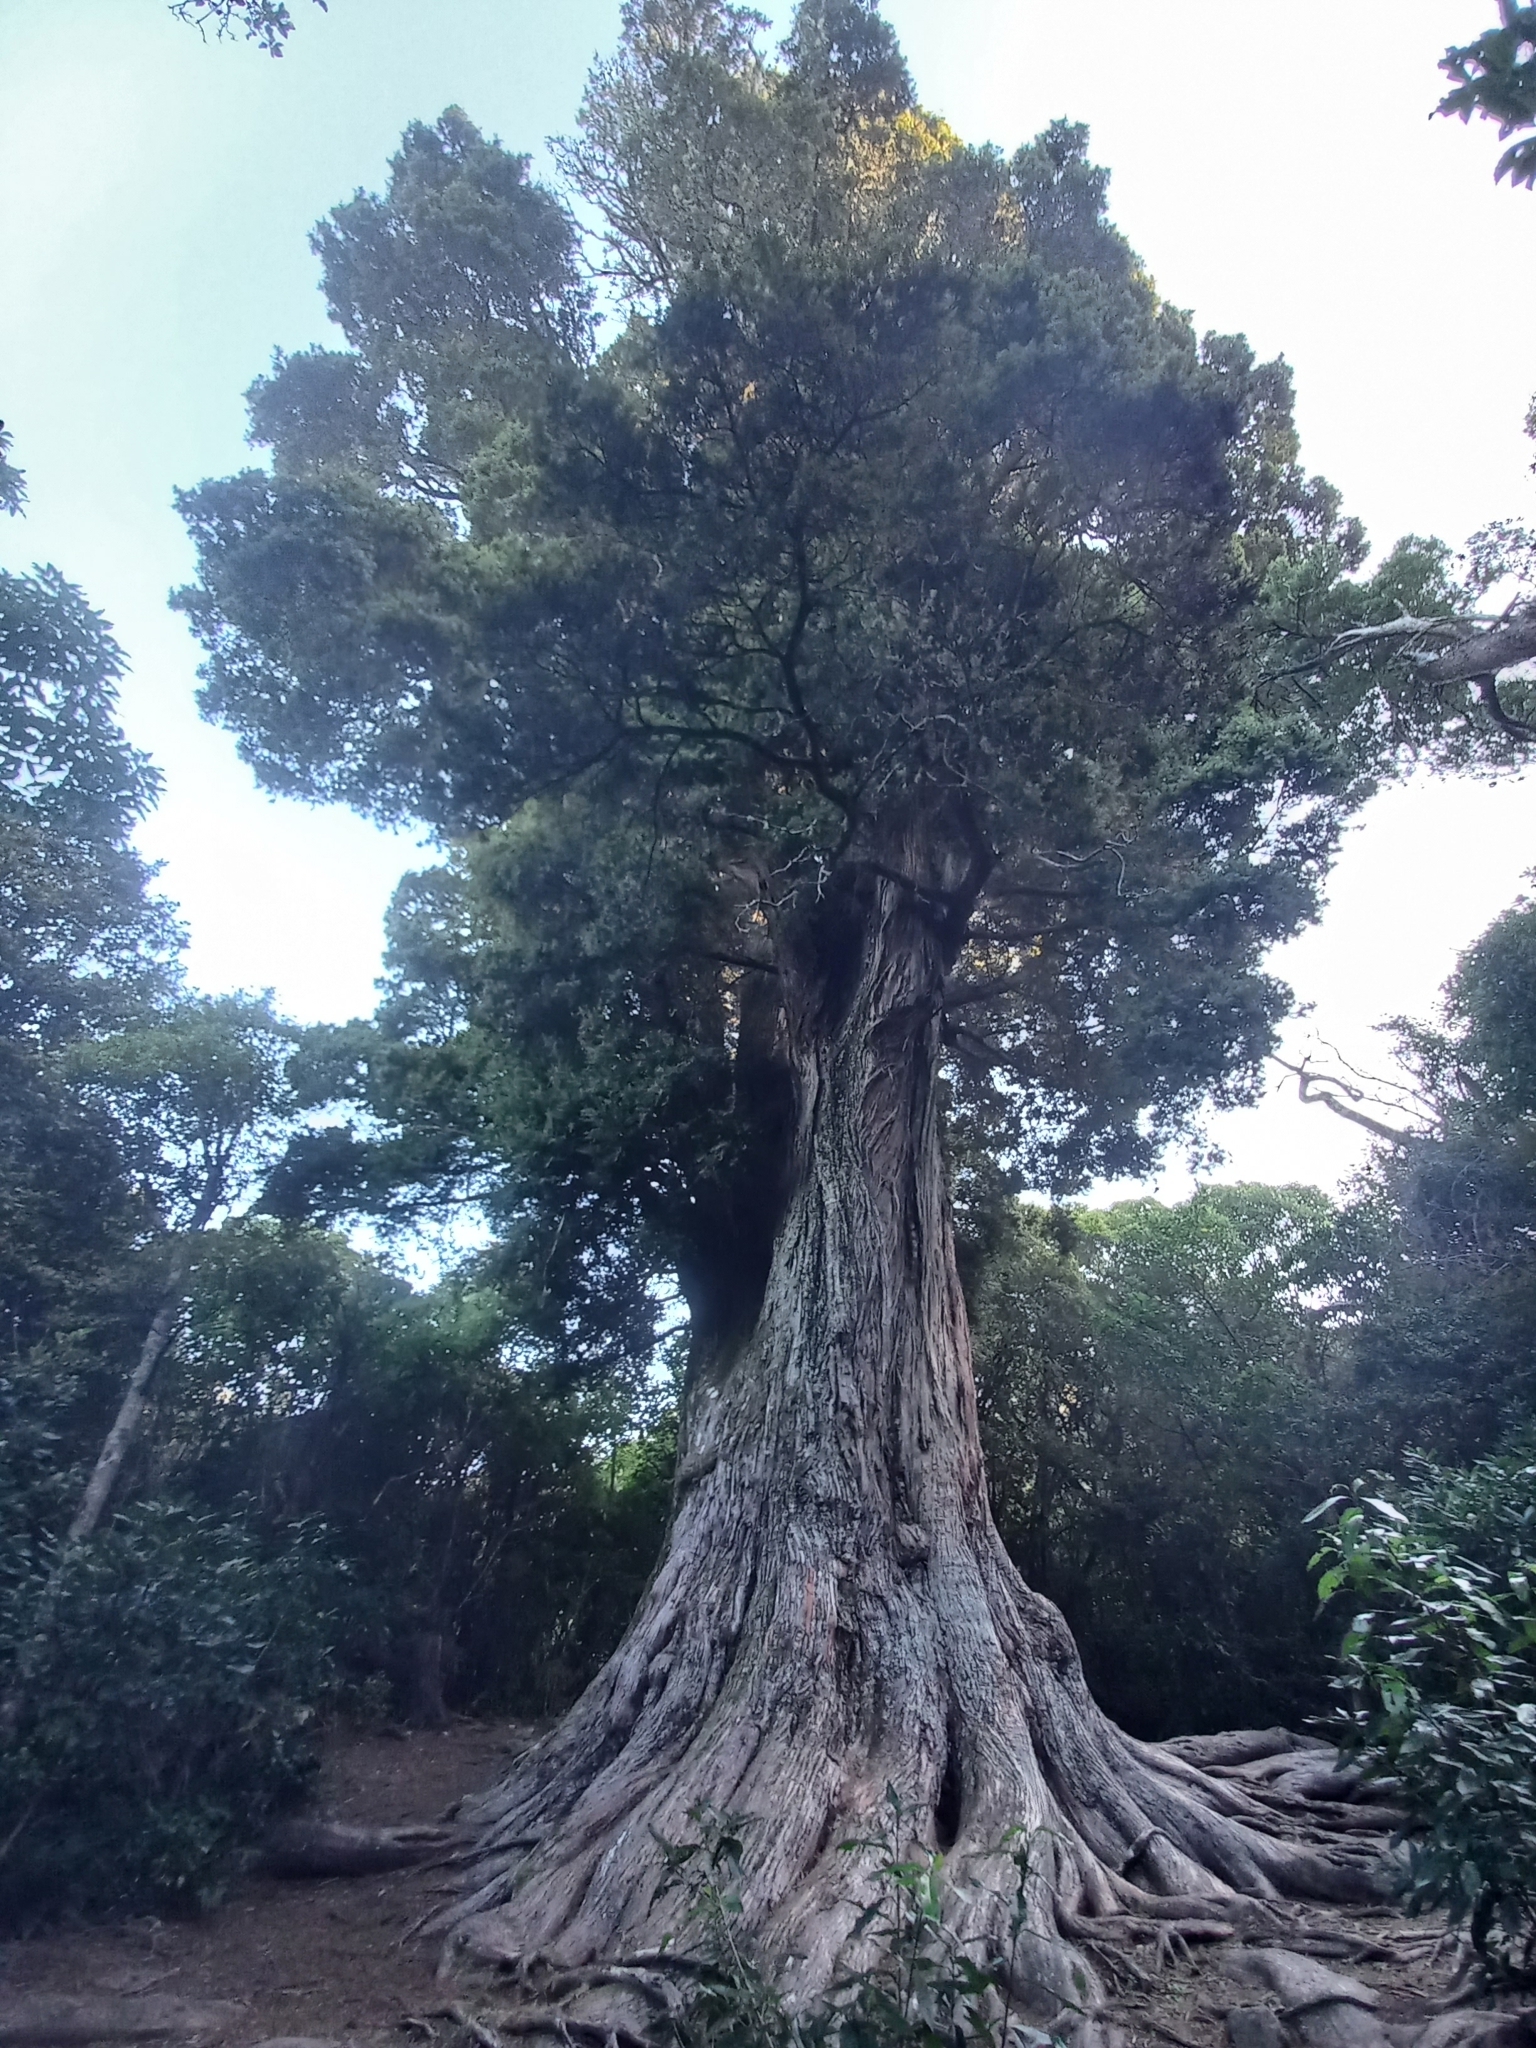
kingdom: Plantae
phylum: Tracheophyta
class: Pinopsida
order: Pinales
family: Podocarpaceae
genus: Podocarpus
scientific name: Podocarpus totara
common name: Totara
